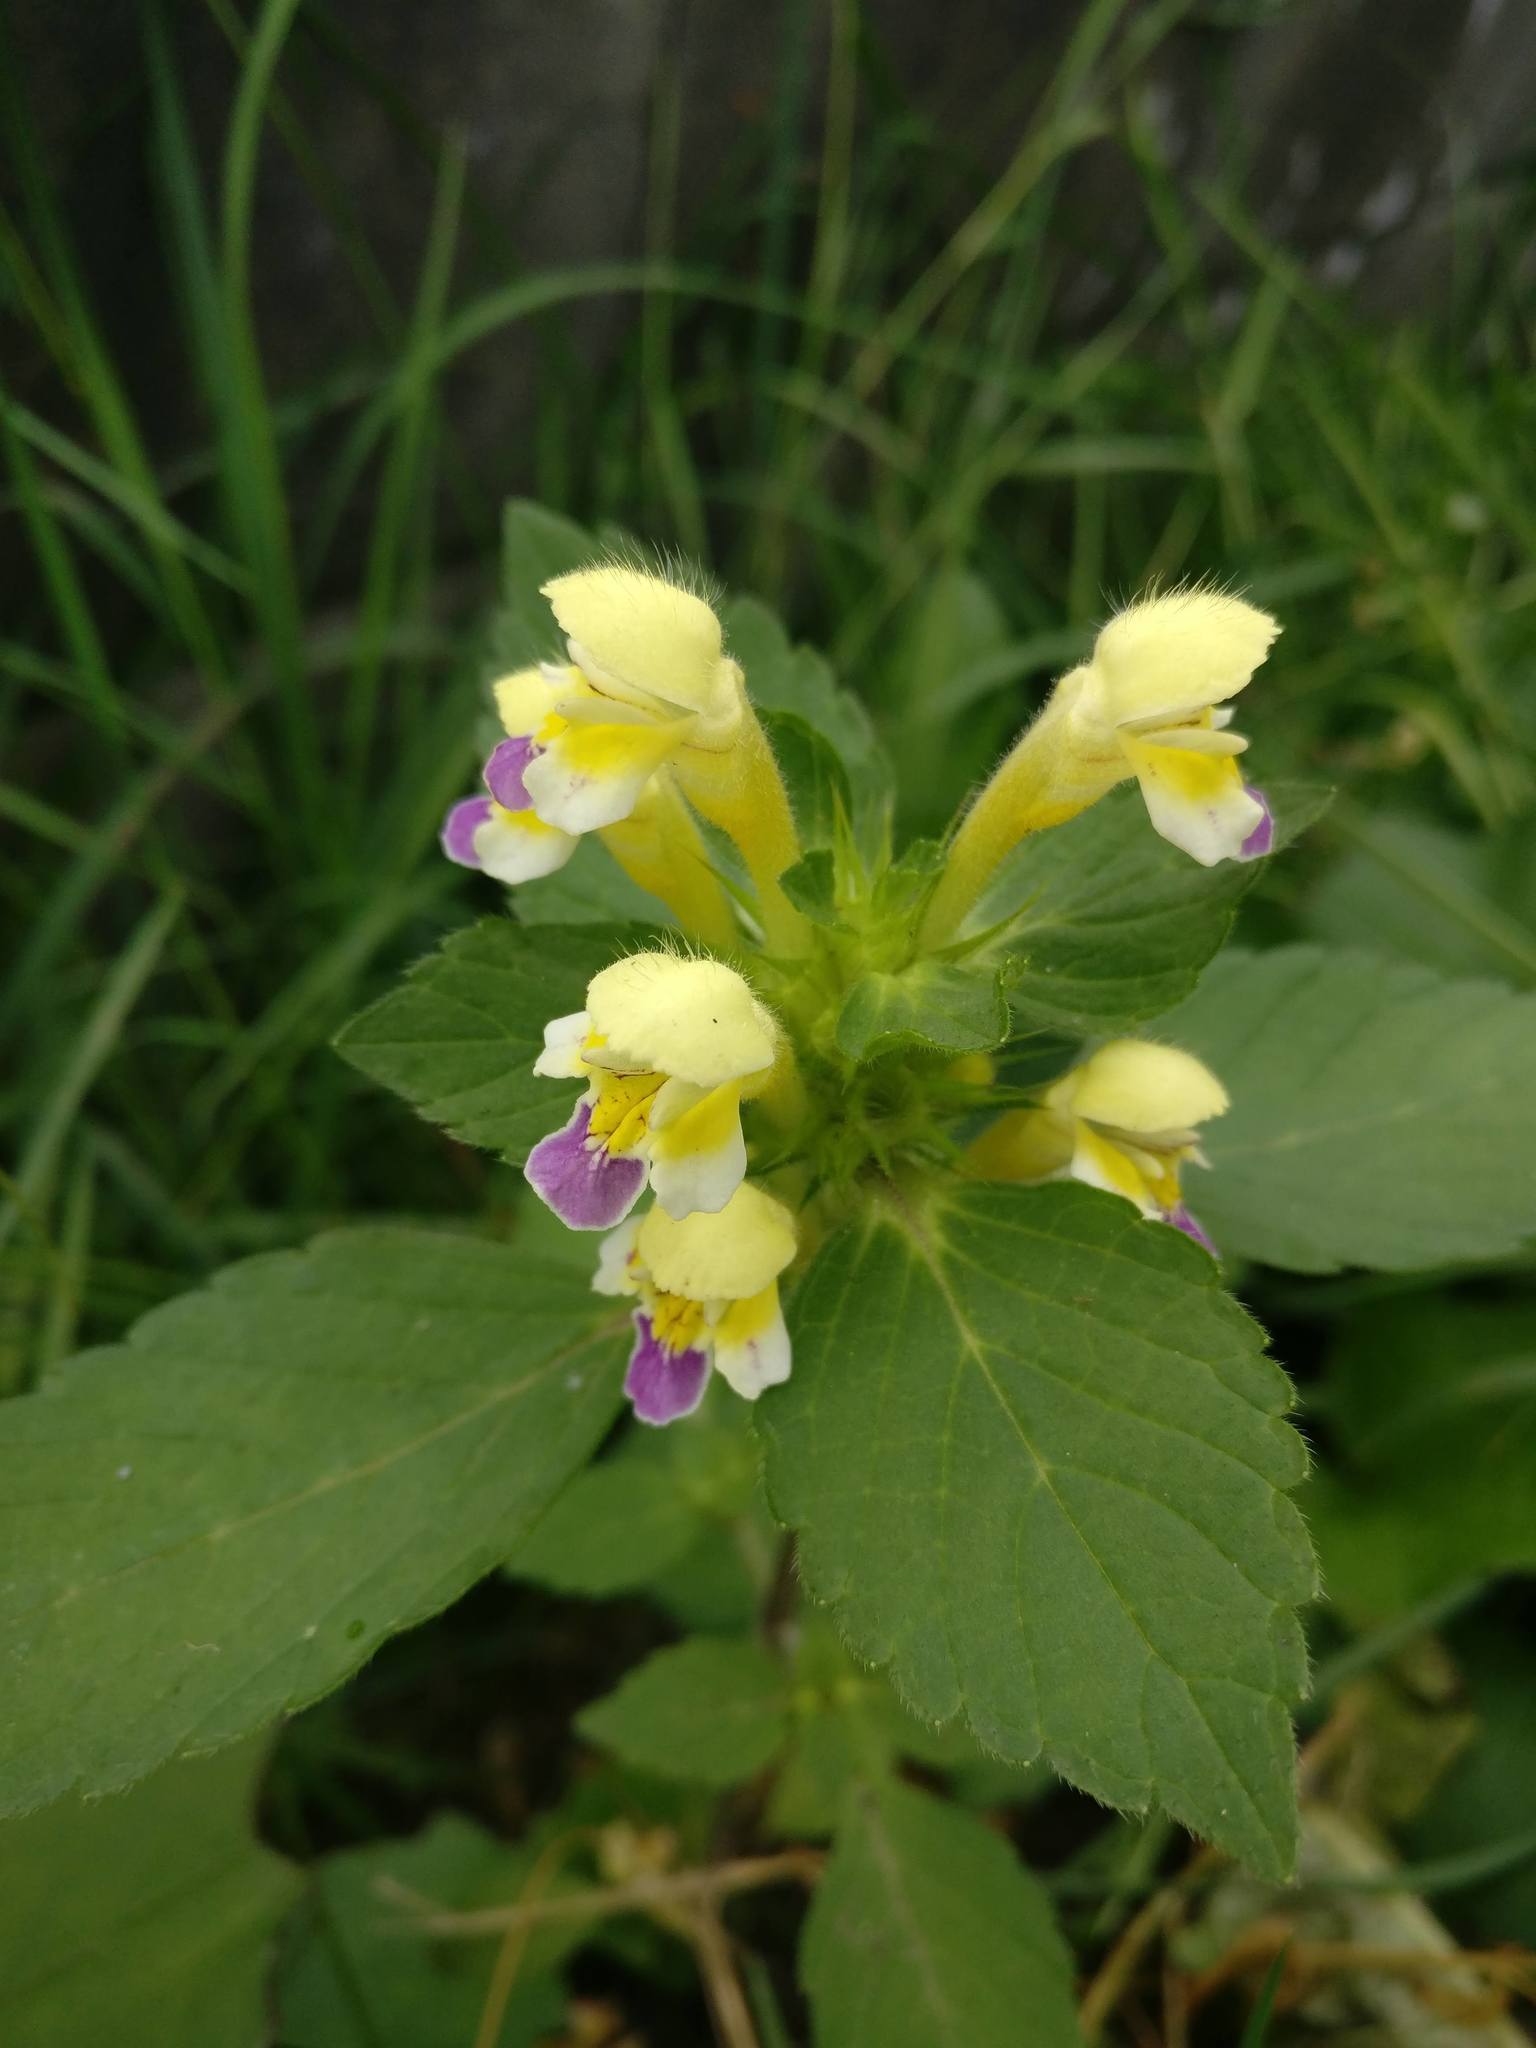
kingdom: Plantae
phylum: Tracheophyta
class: Magnoliopsida
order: Lamiales
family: Lamiaceae
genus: Galeopsis
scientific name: Galeopsis speciosa
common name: Large-flowered hemp-nettle
